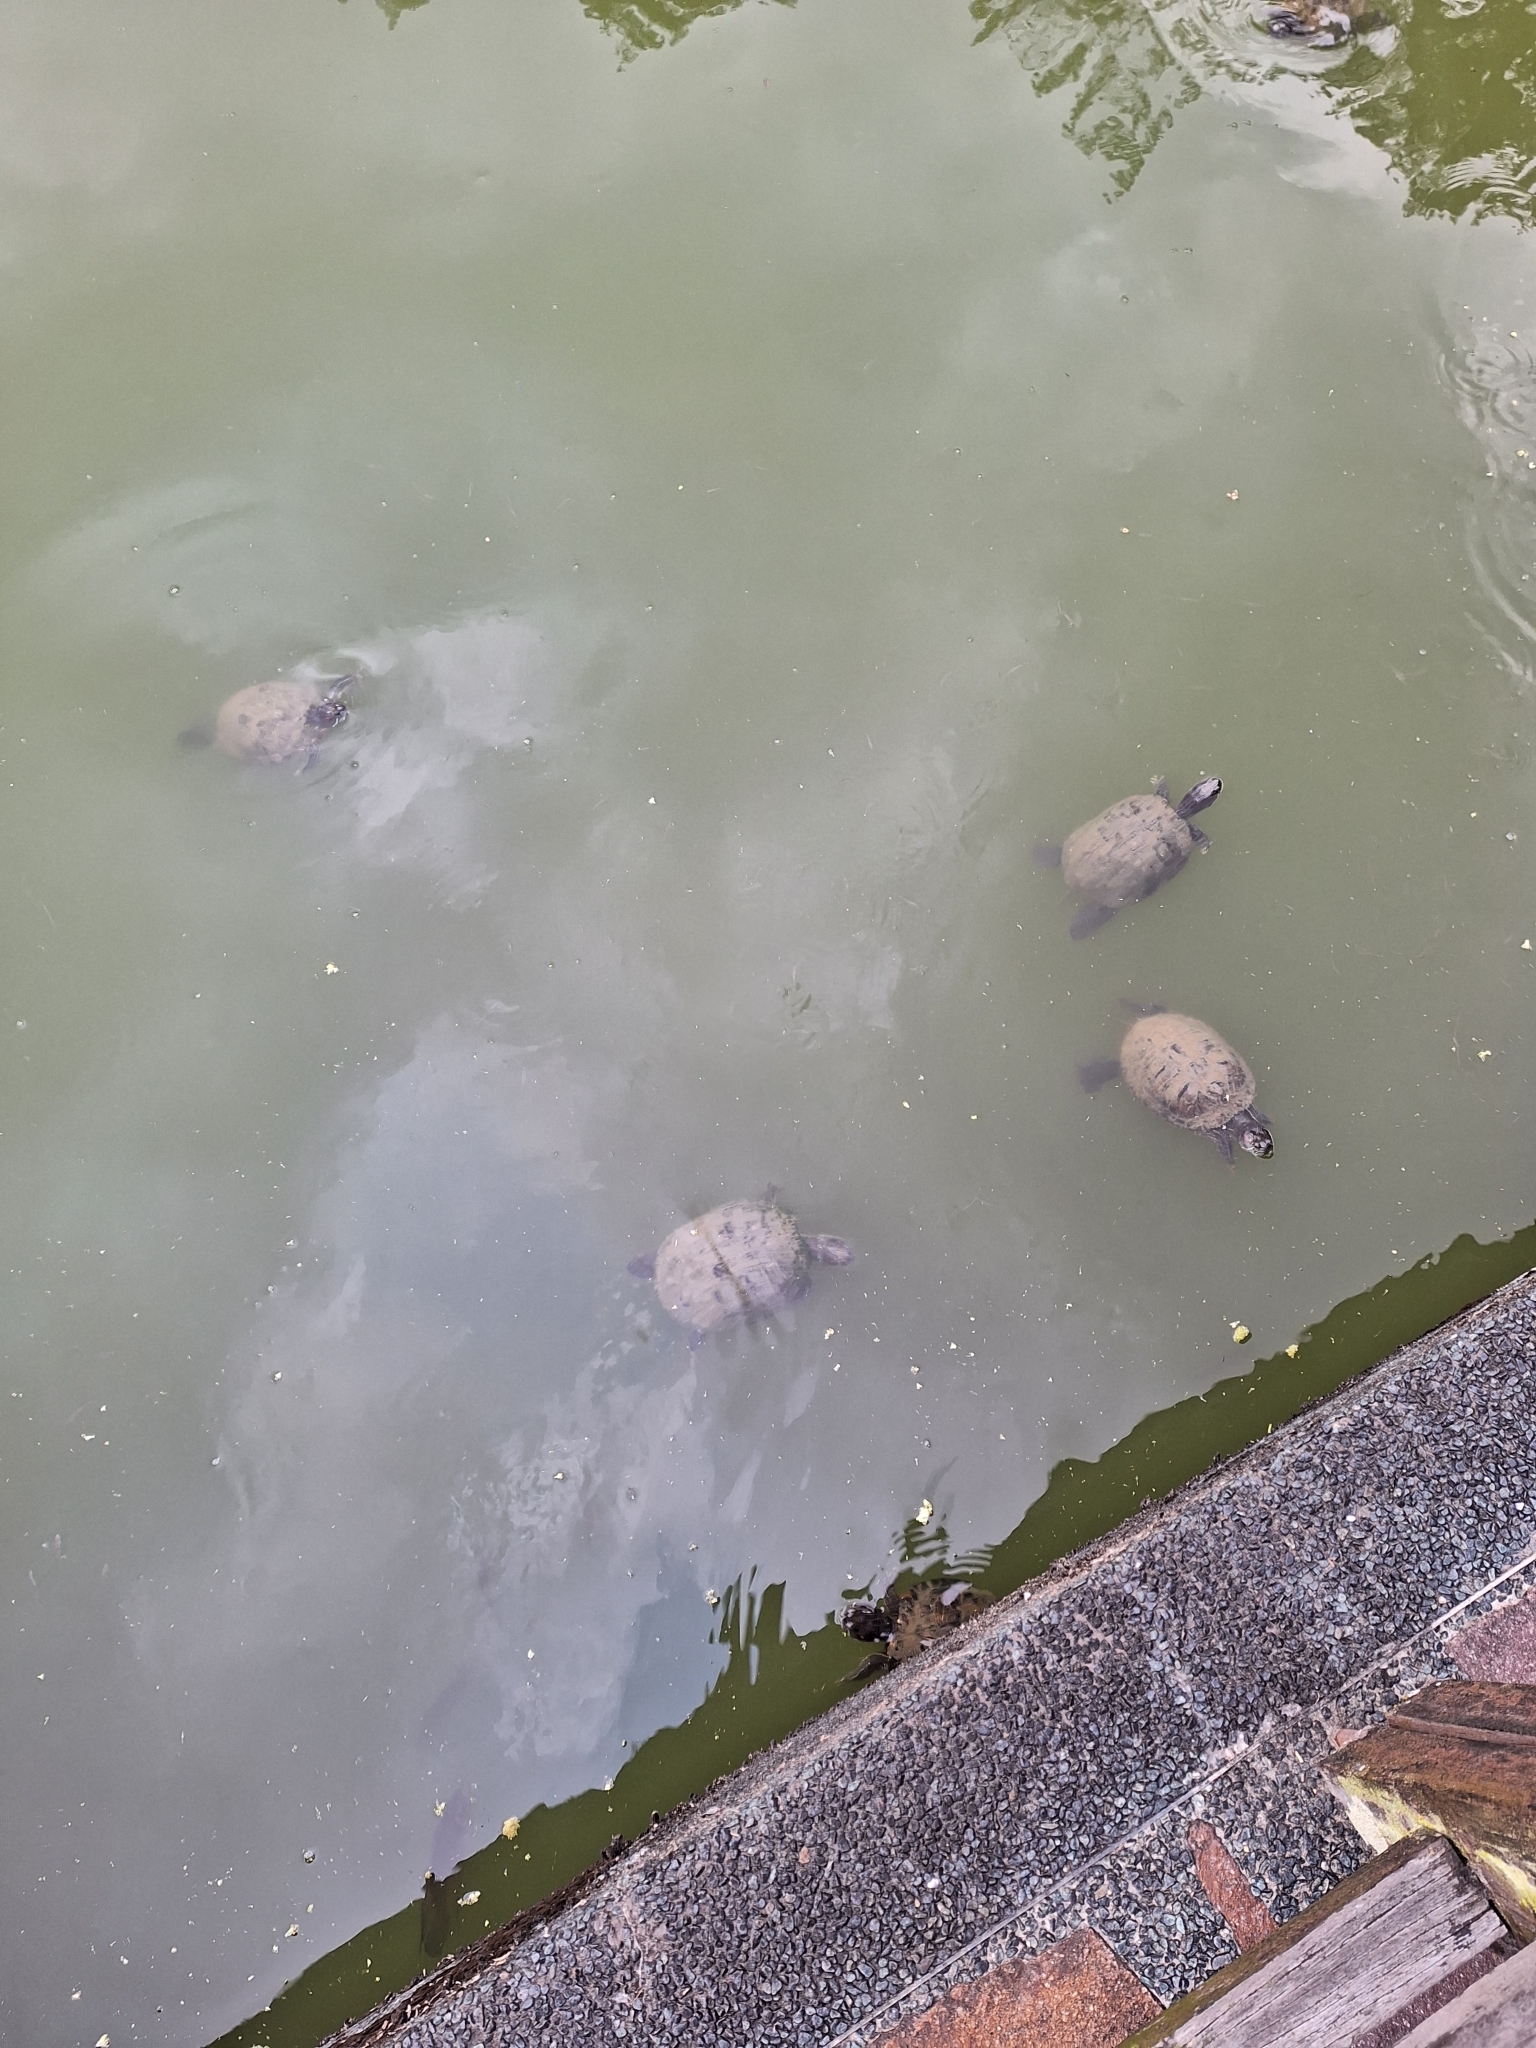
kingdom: Animalia
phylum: Chordata
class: Testudines
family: Emydidae
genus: Trachemys
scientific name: Trachemys scripta
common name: Slider
